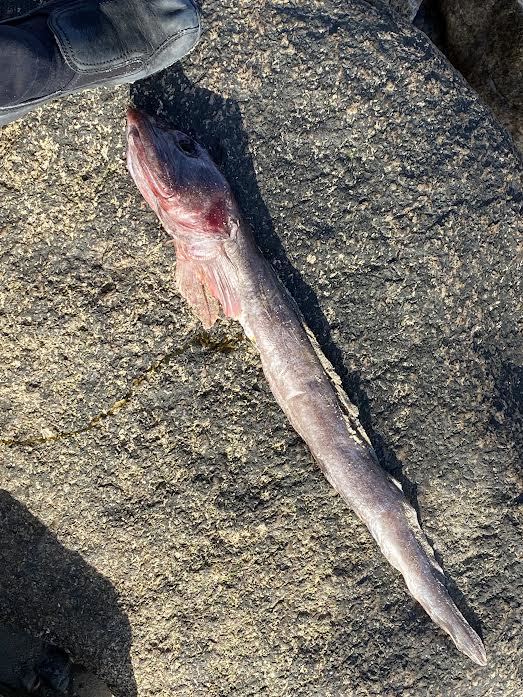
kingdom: Animalia
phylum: Chordata
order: Perciformes
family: Zoarcidae
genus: Zoarces
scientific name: Zoarces americanus
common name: Mother-of-eels
